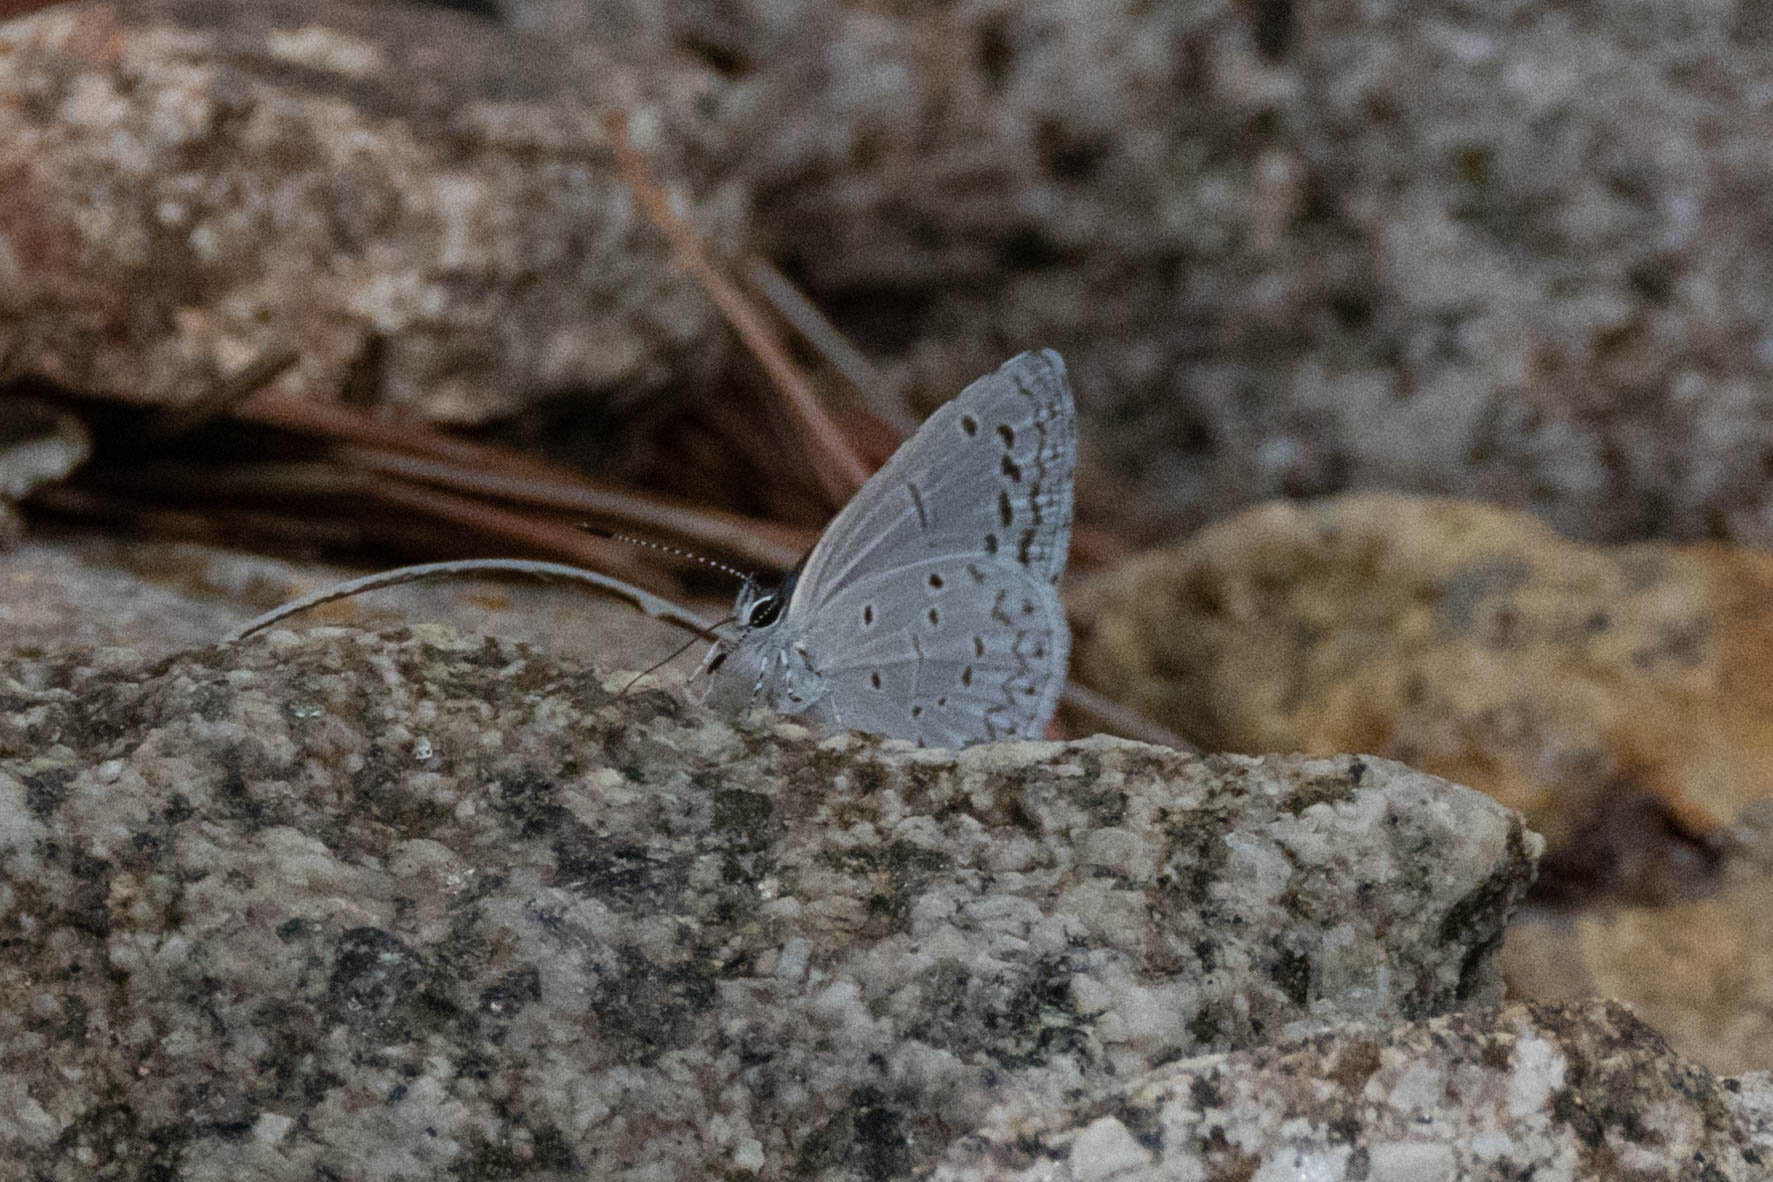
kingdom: Animalia
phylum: Arthropoda
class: Insecta
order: Lepidoptera
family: Lycaenidae
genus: Celastrina
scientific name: Celastrina ladon
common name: Spring azure
